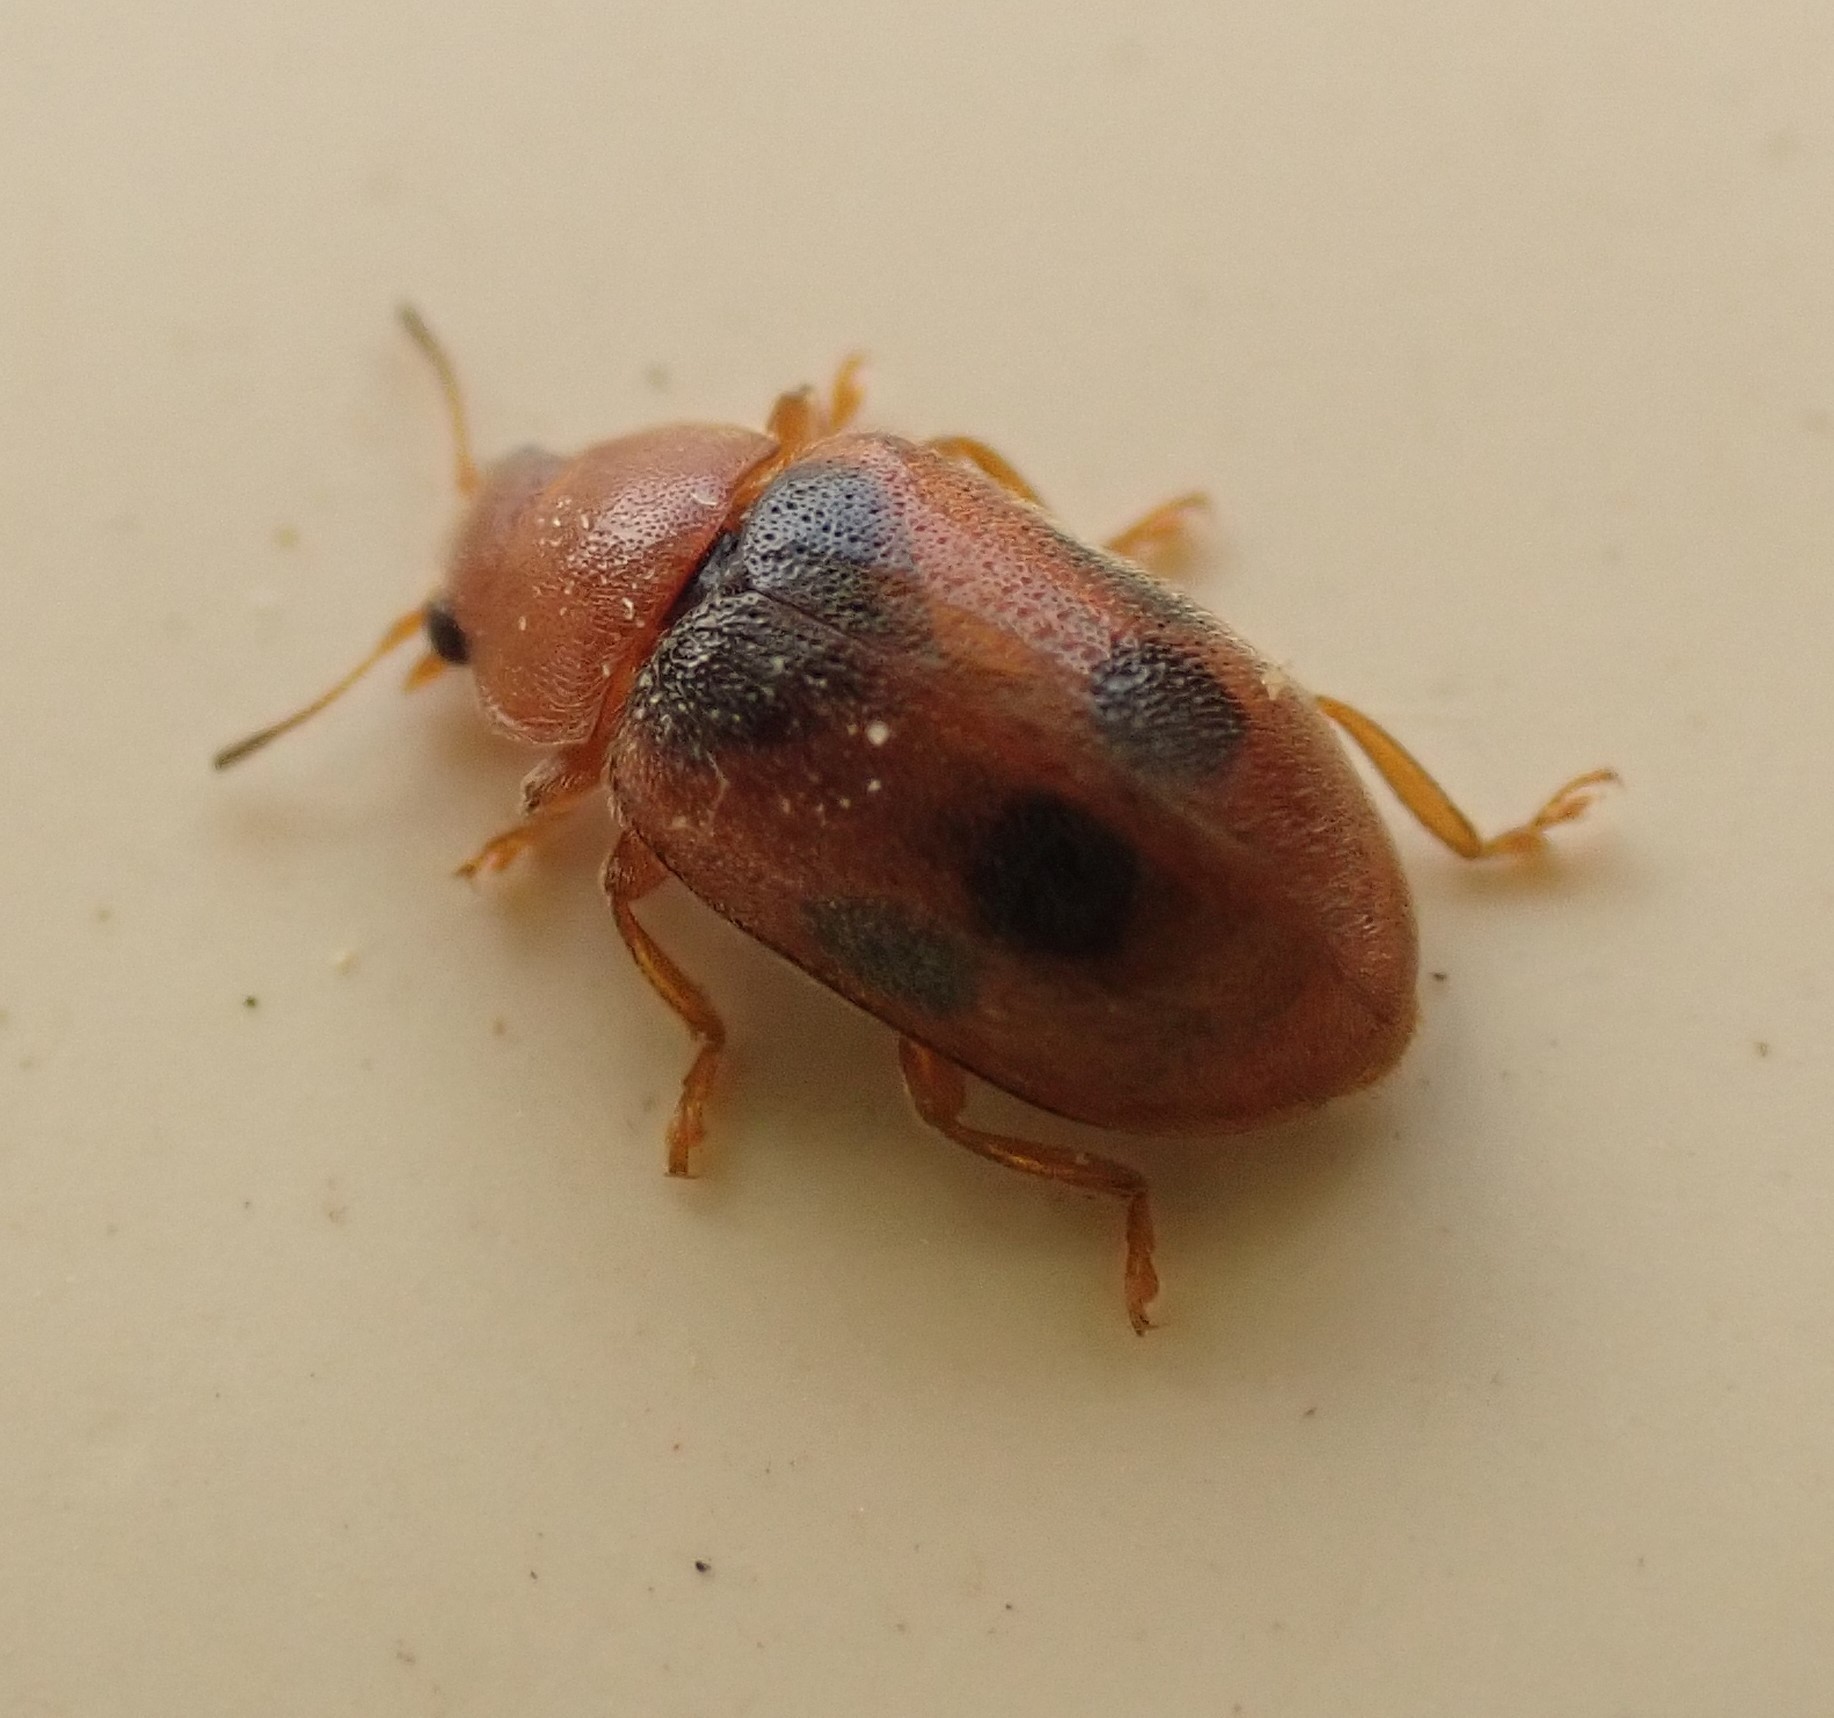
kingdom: Animalia
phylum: Arthropoda
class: Insecta
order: Coleoptera
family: Coccinellidae
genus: Coccidula
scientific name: Coccidula scutellata
